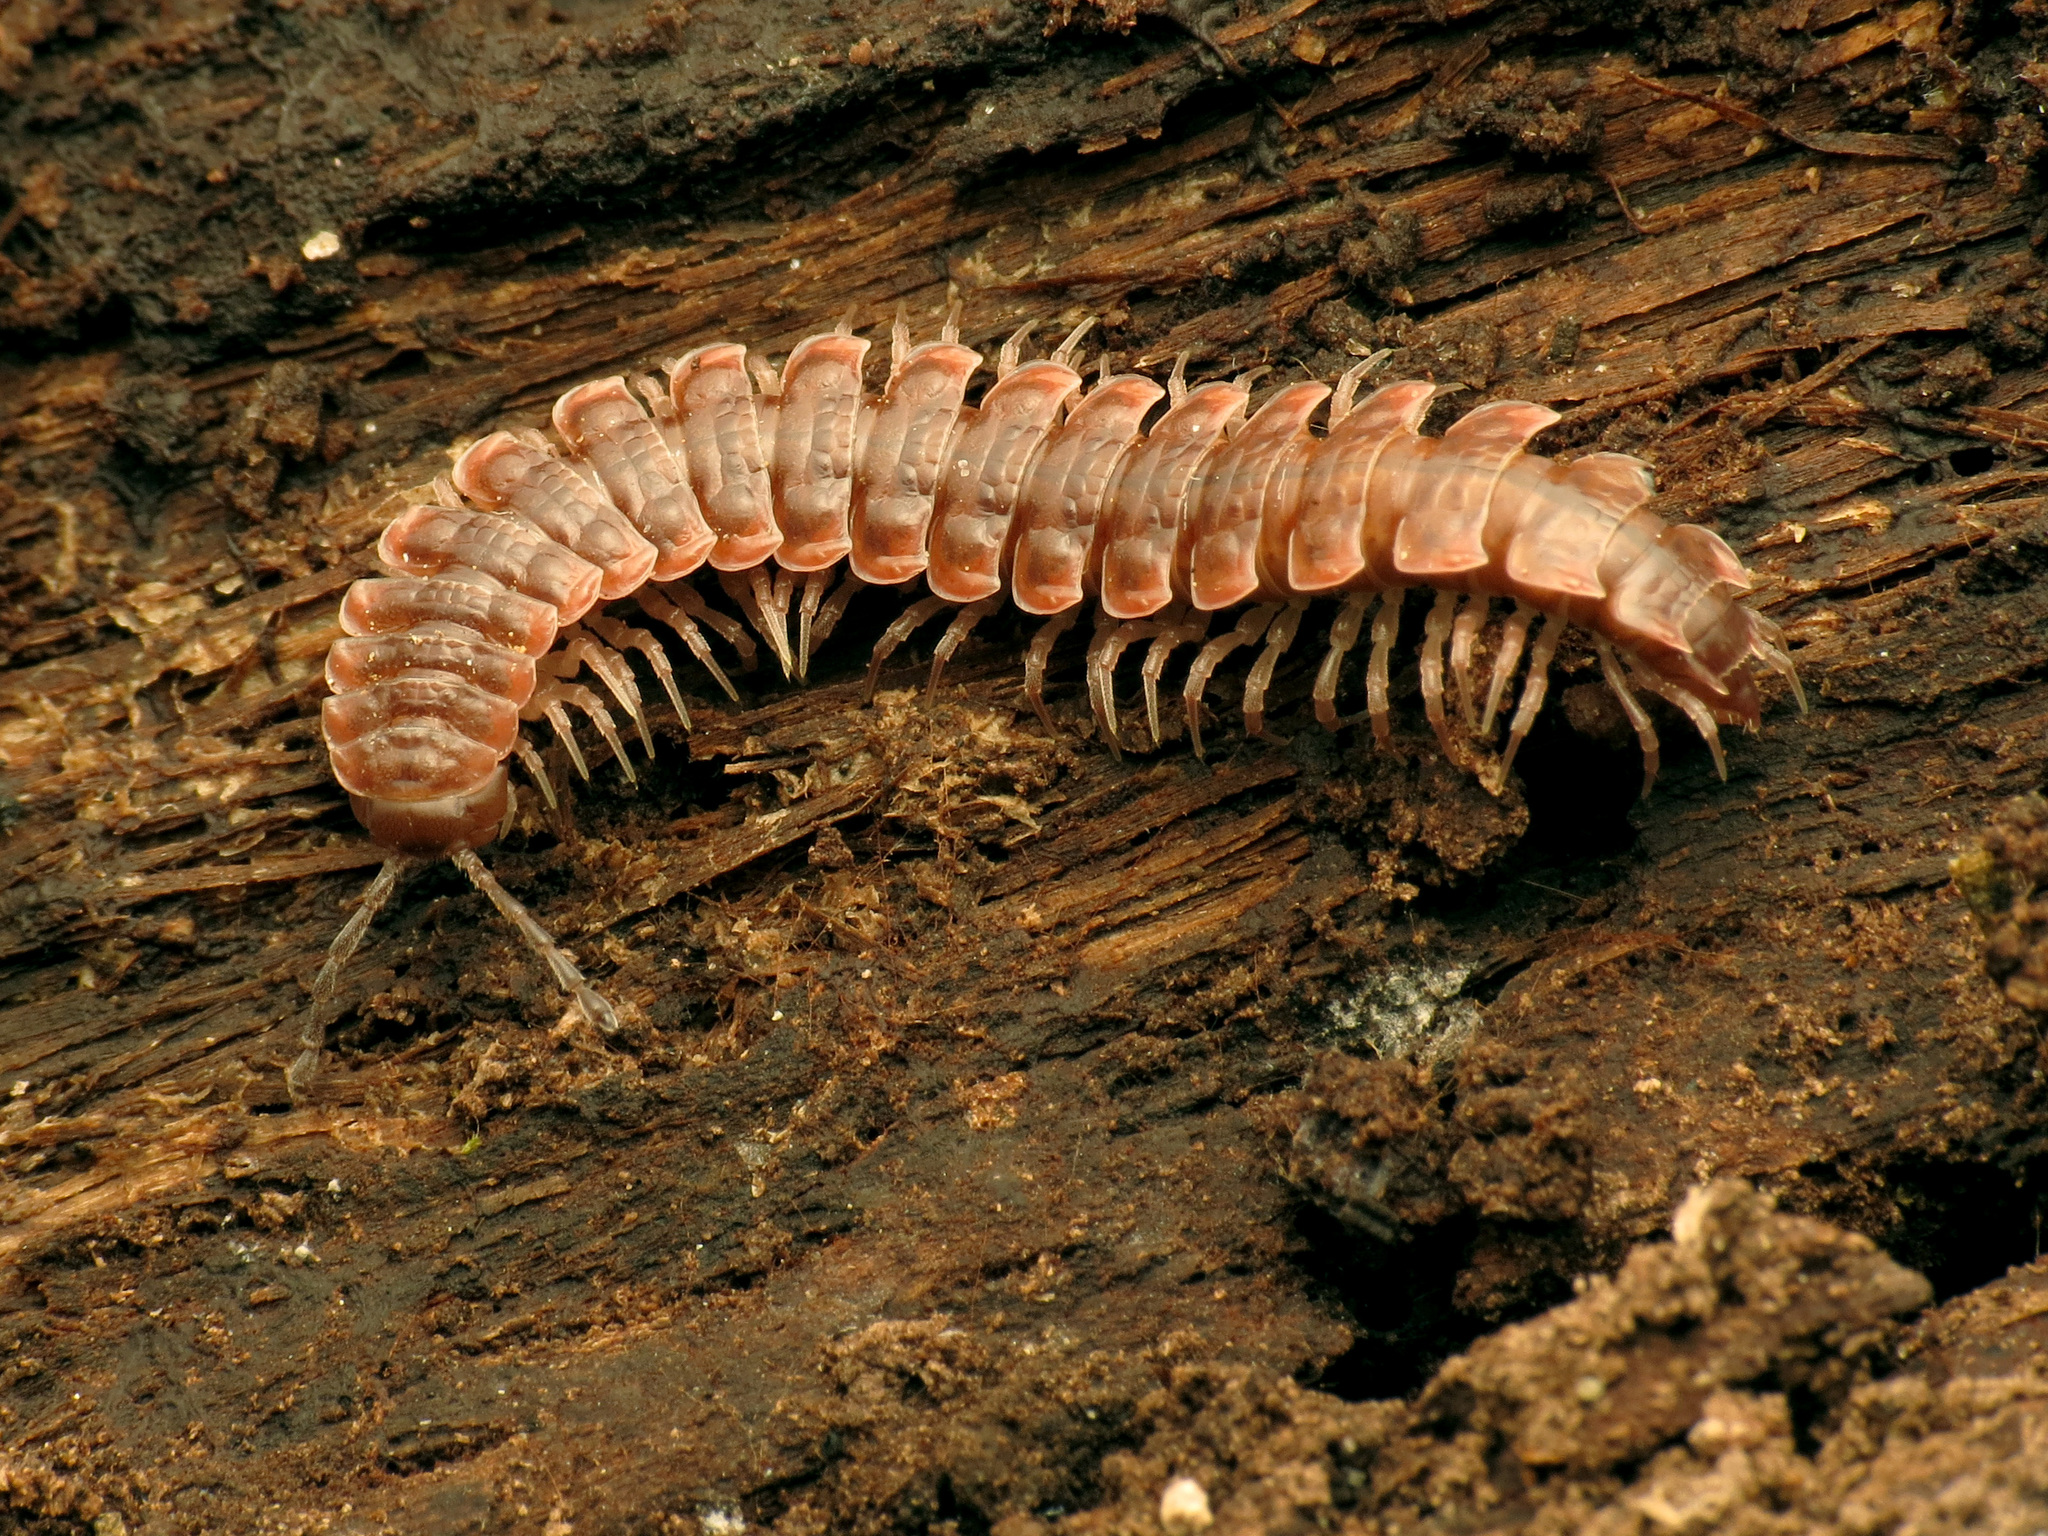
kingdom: Animalia
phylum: Arthropoda
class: Diplopoda
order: Polydesmida
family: Polydesmidae
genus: Pseudopolydesmus
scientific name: Pseudopolydesmus serratus
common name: Common pink flat-back millipede
